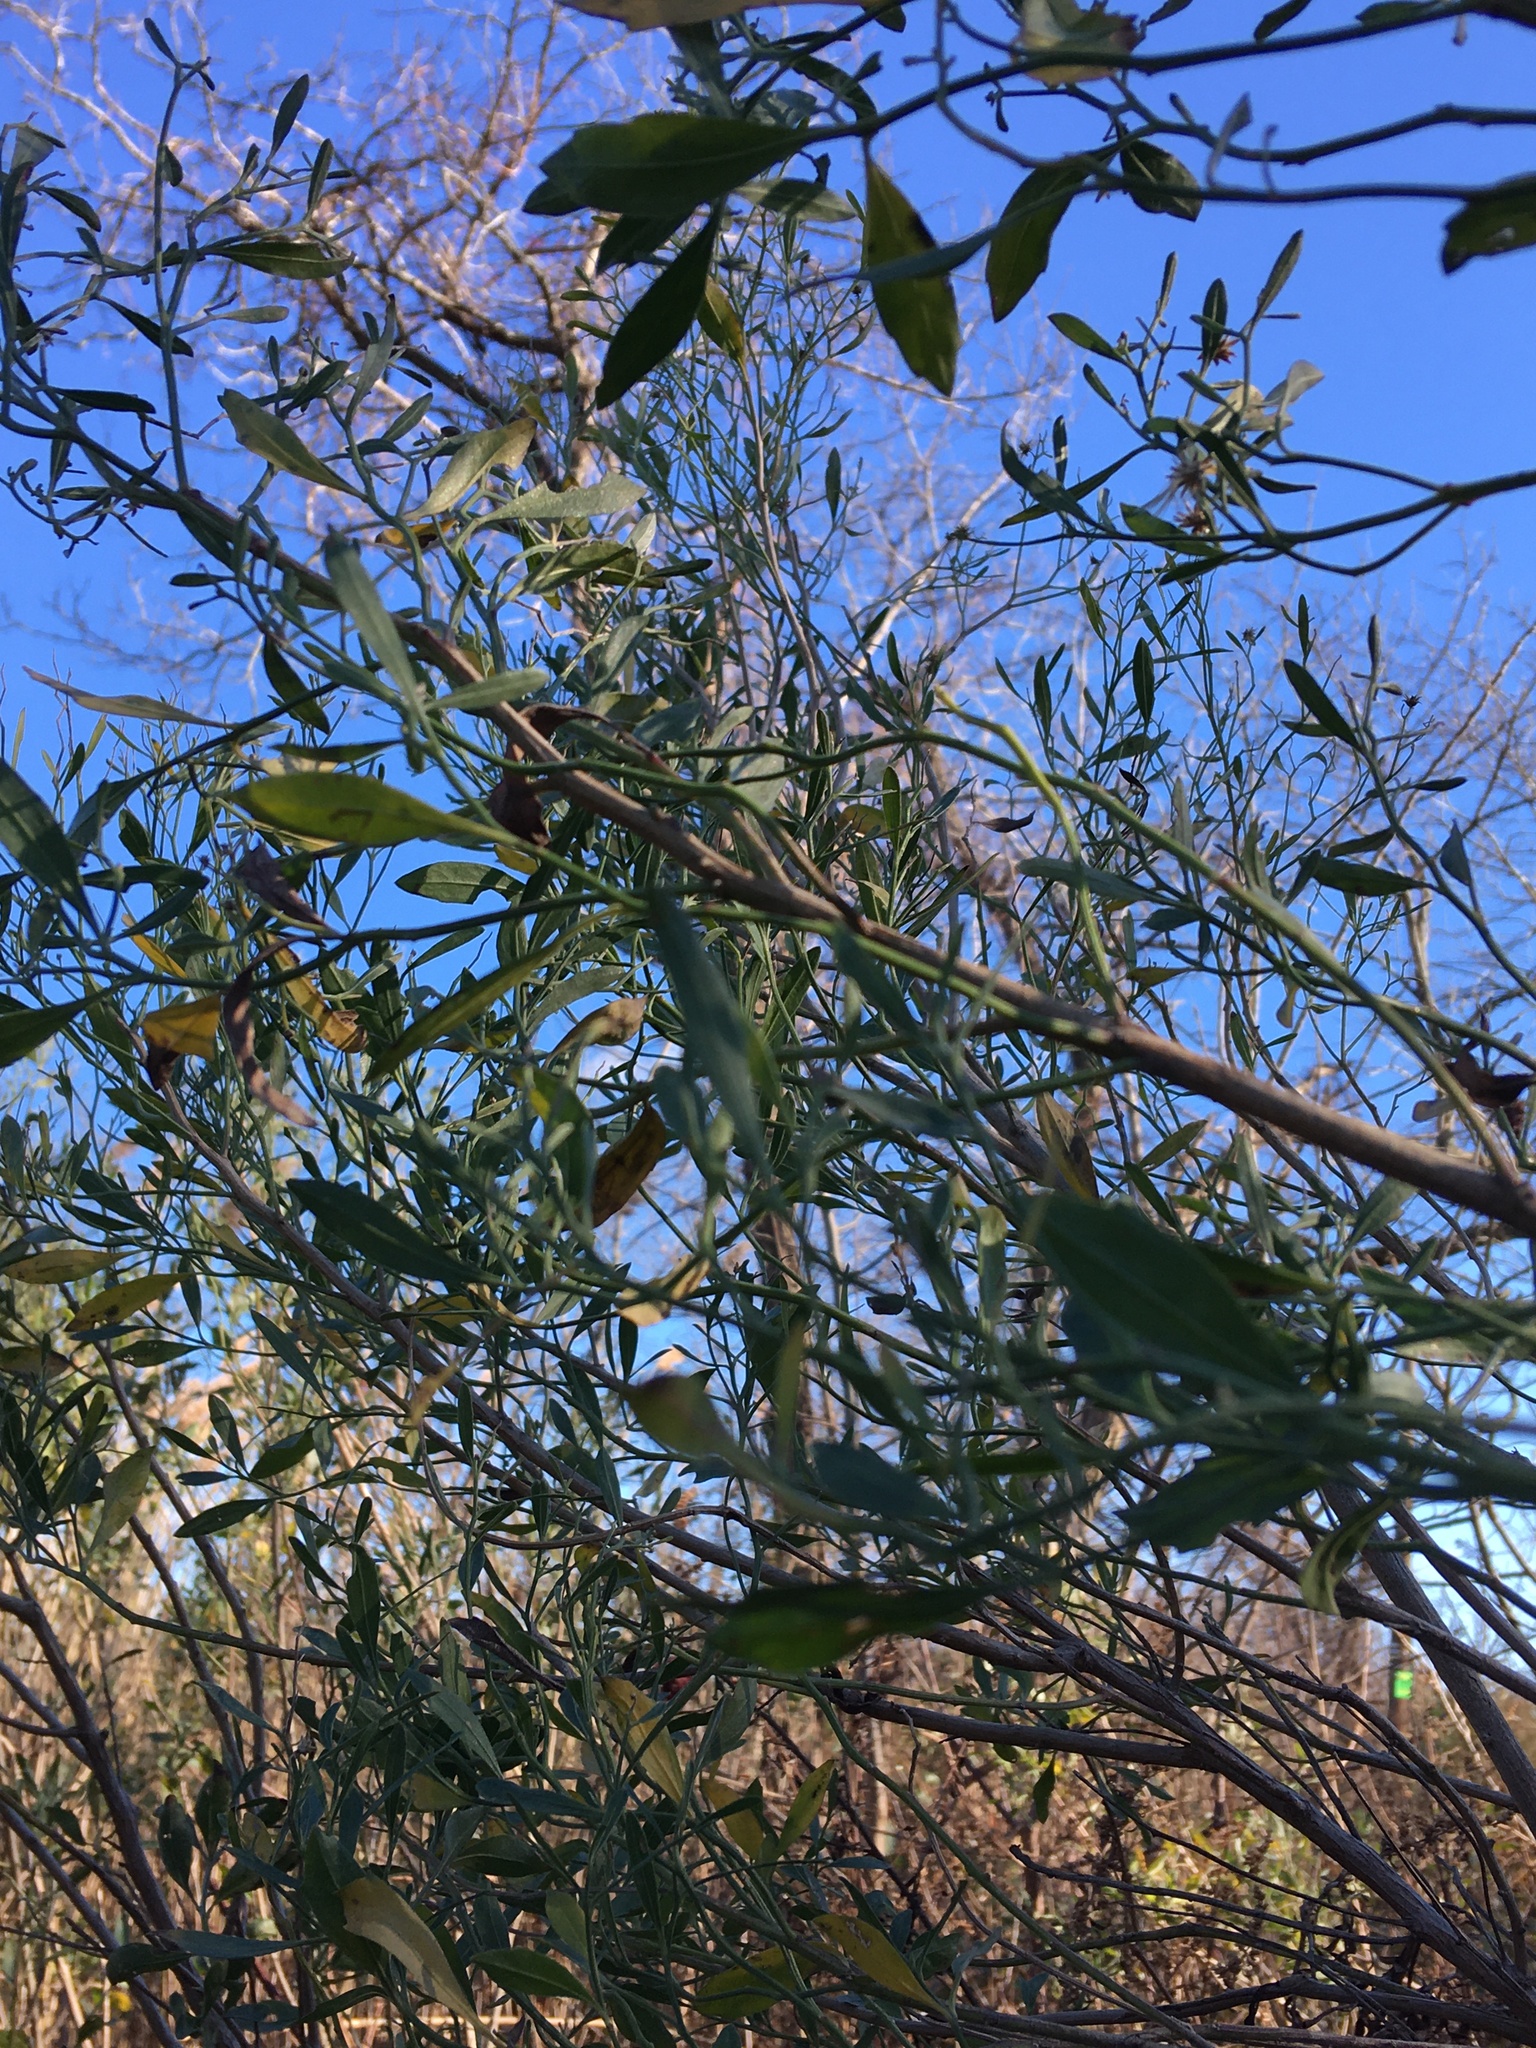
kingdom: Plantae
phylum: Tracheophyta
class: Magnoliopsida
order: Asterales
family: Asteraceae
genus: Baccharis
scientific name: Baccharis halimifolia
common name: Eastern baccharis
